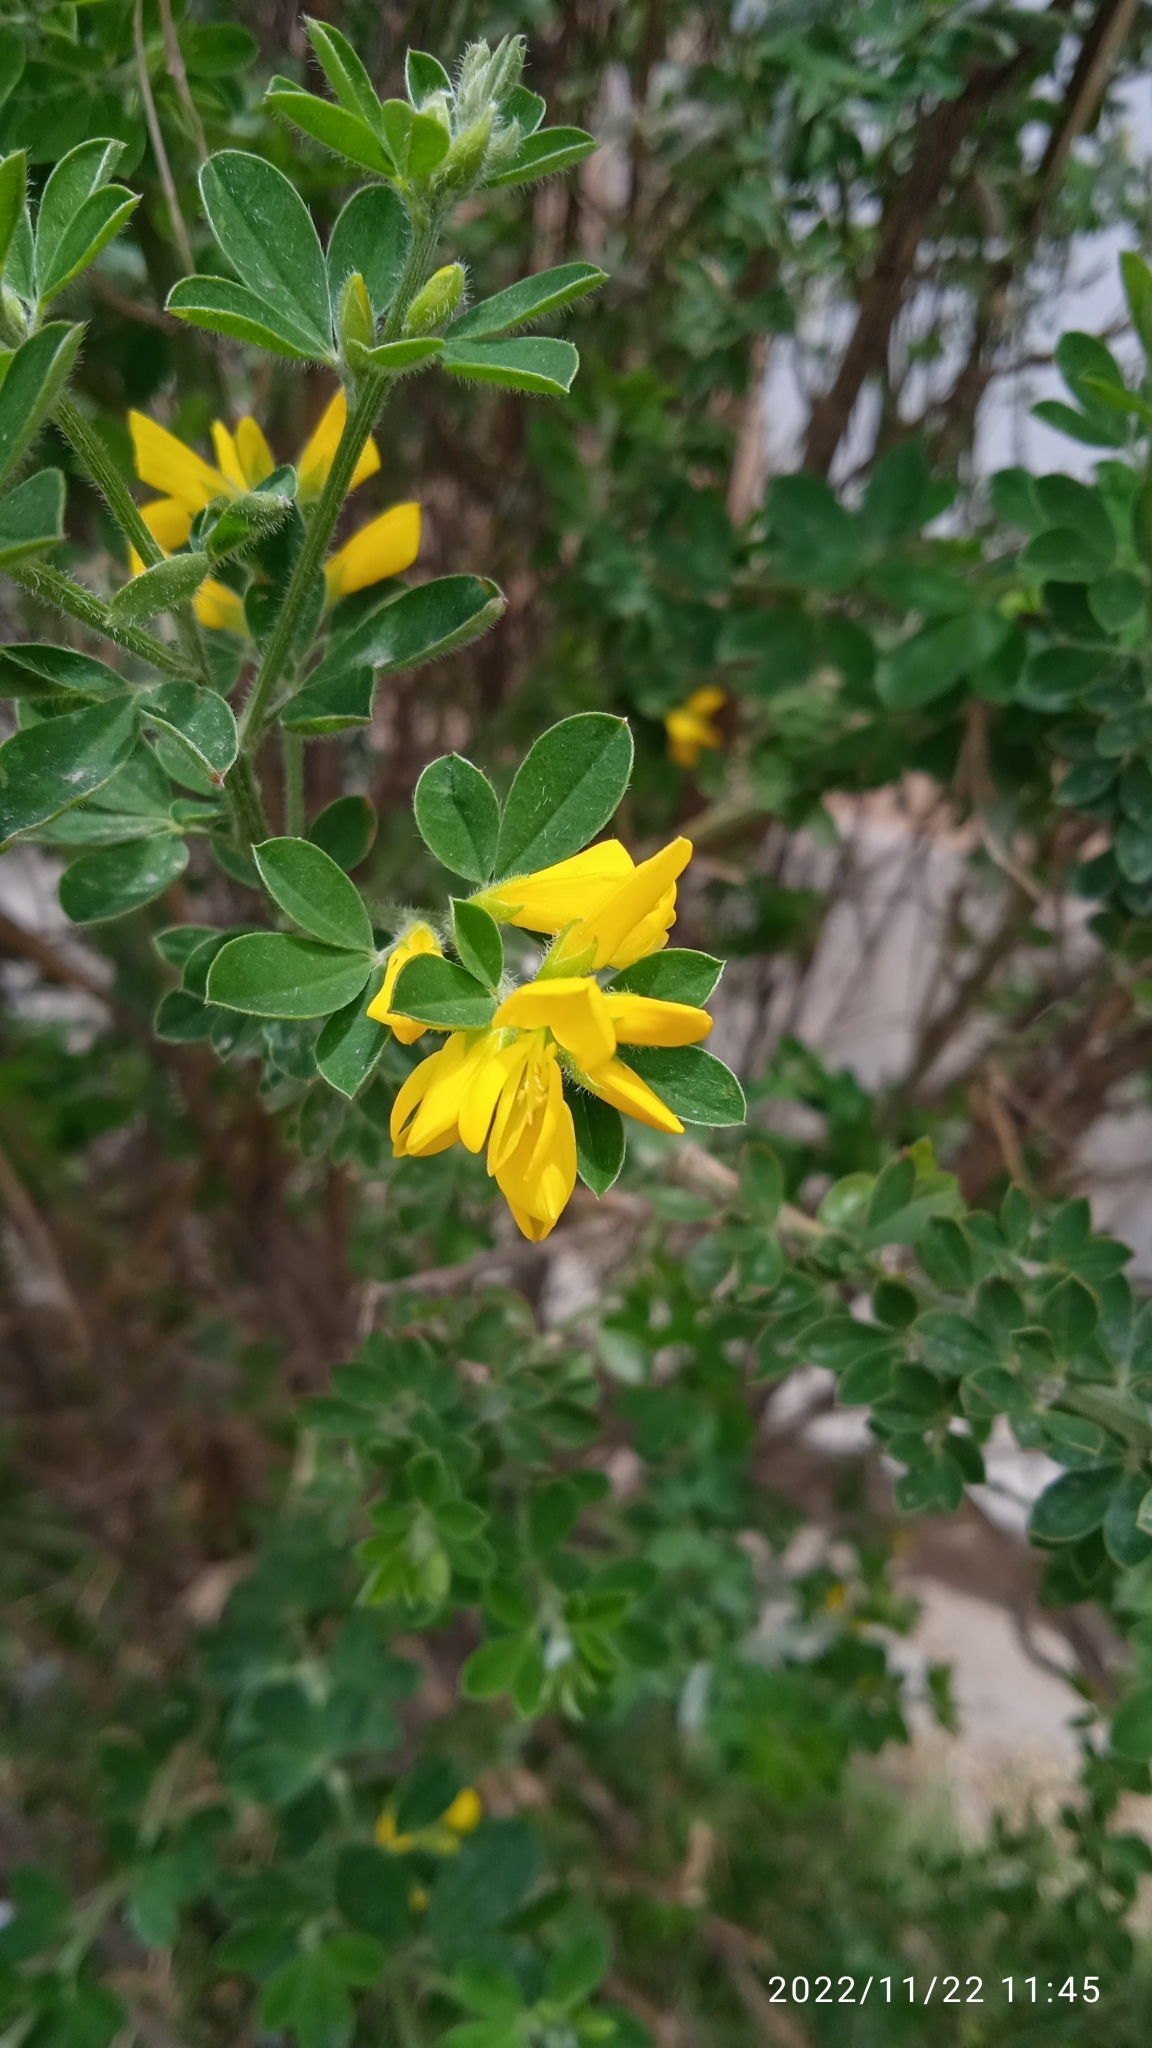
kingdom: Plantae
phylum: Tracheophyta
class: Magnoliopsida
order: Fabales
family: Fabaceae
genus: Genista
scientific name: Genista monspessulana
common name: Montpellier broom
